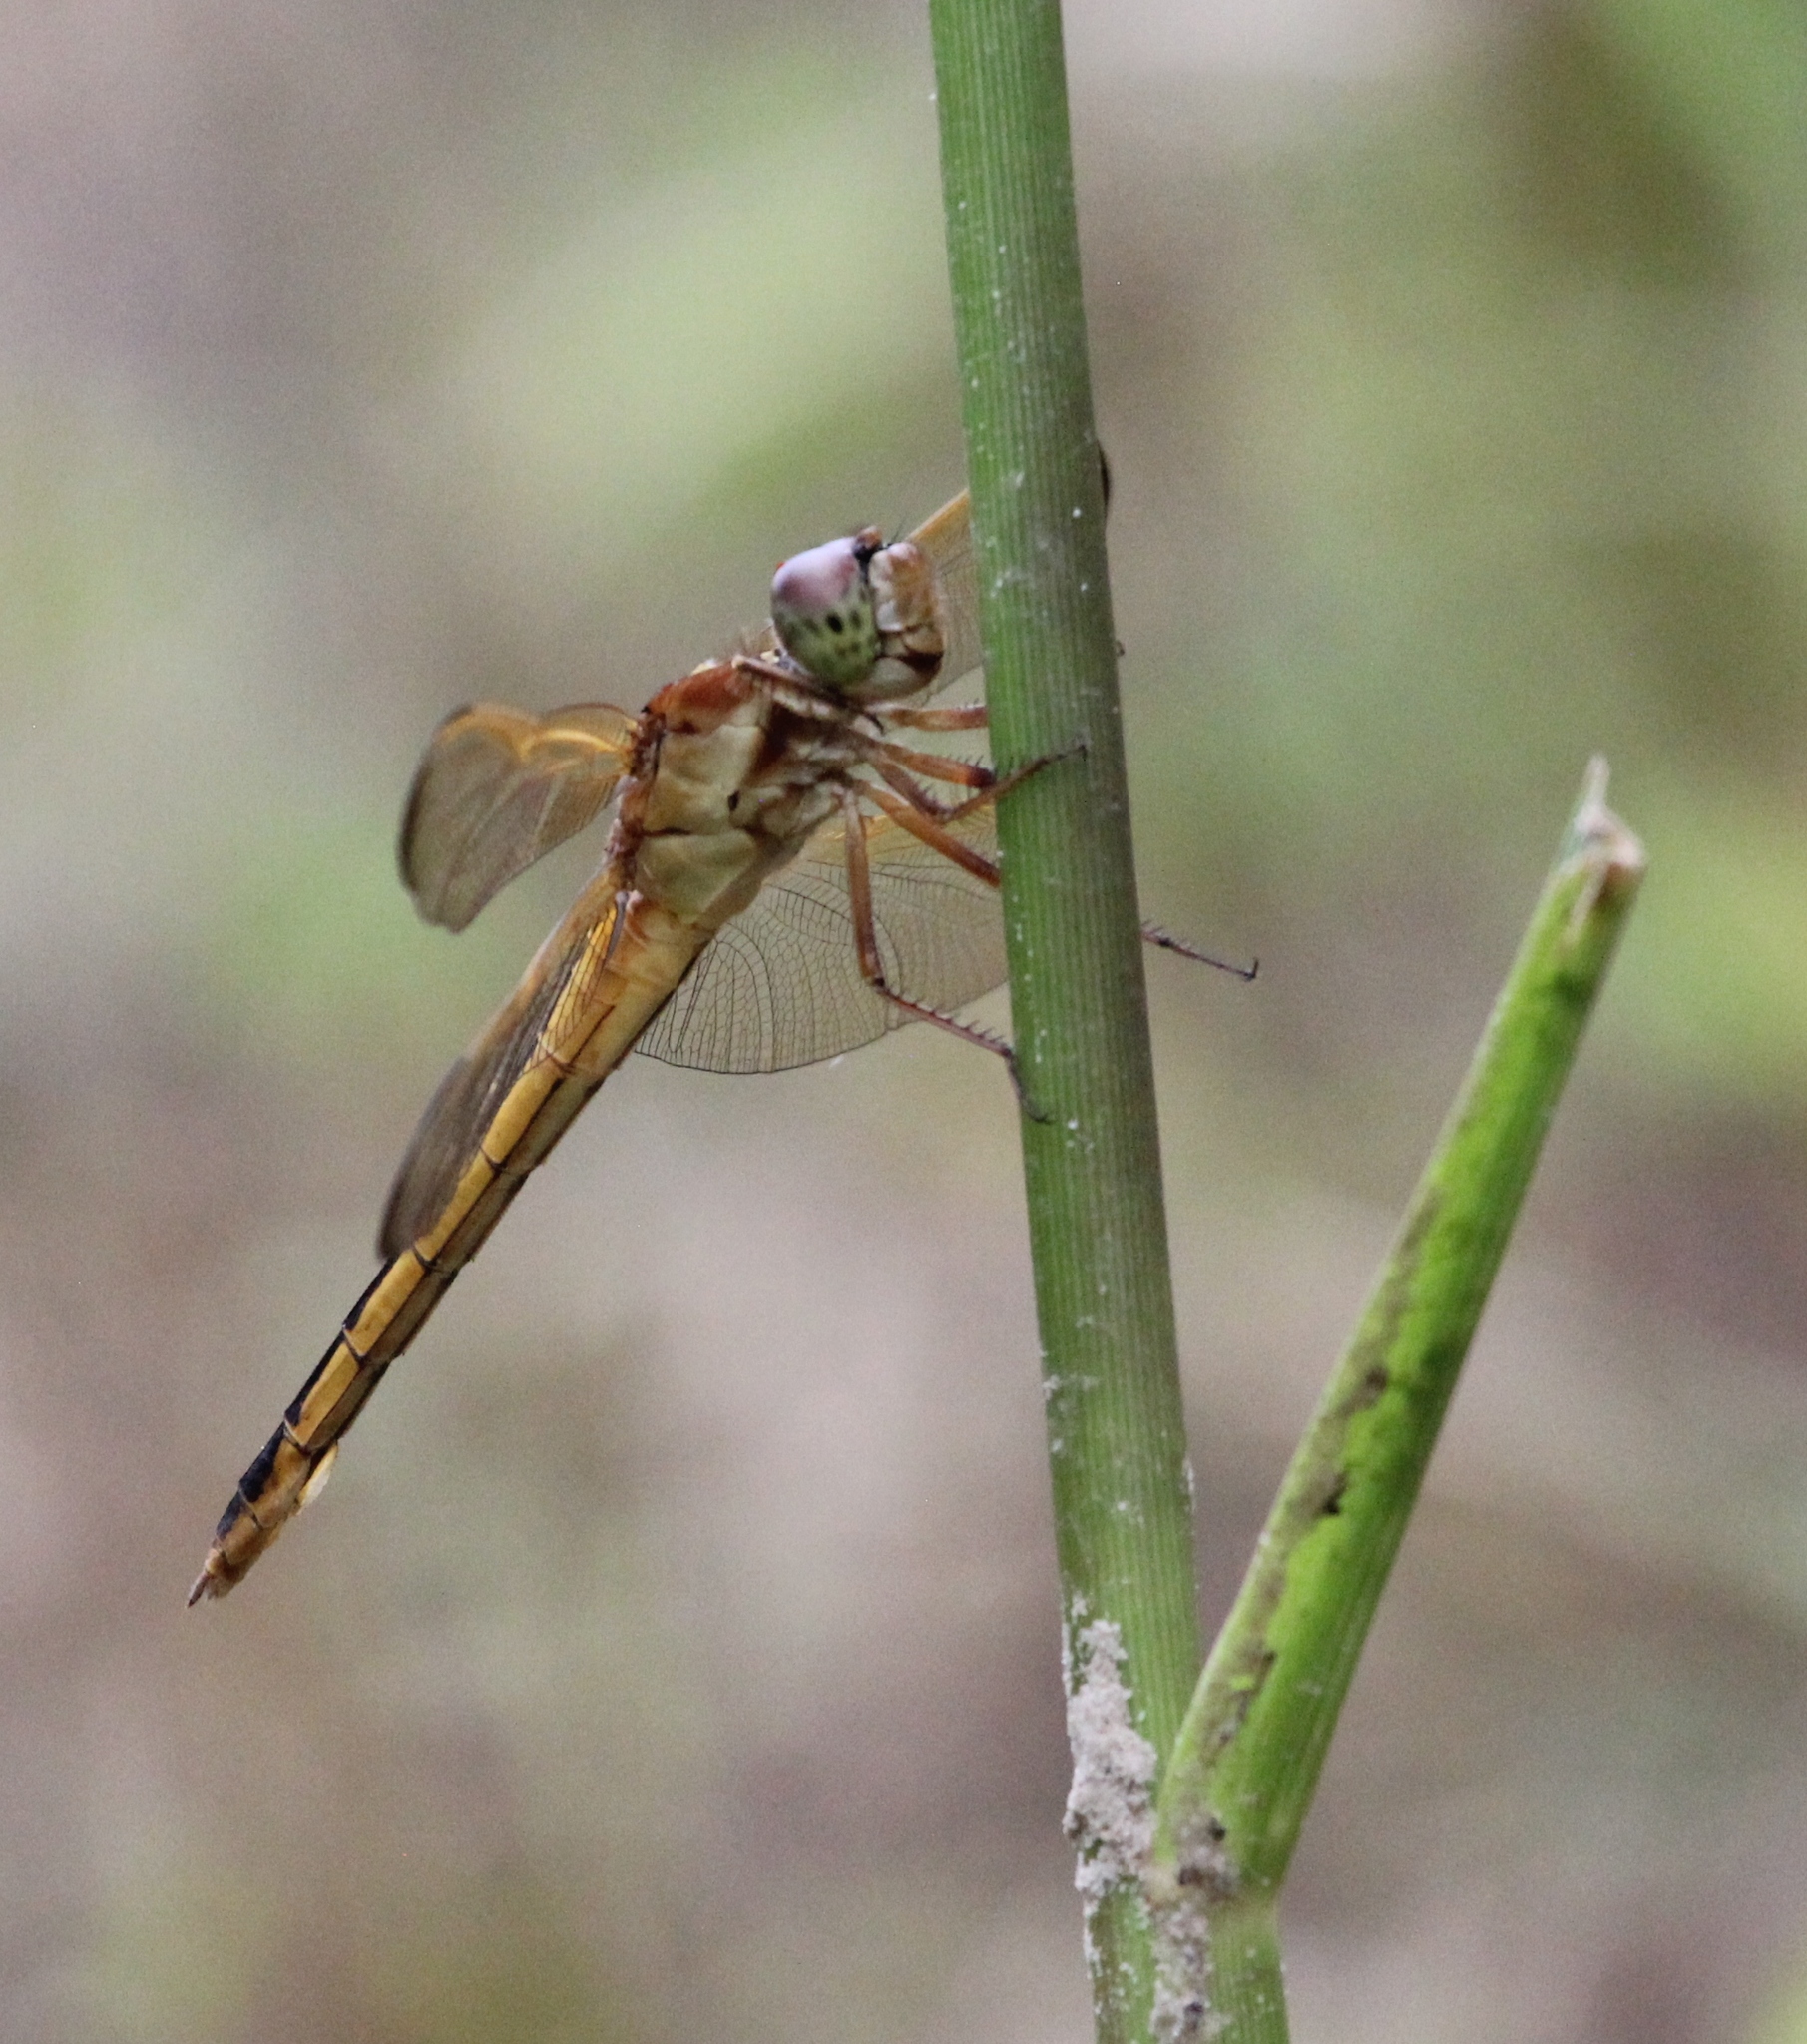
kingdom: Animalia
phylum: Arthropoda
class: Insecta
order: Odonata
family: Libellulidae
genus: Libellula
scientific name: Libellula needhami
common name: Needham's skimmer
